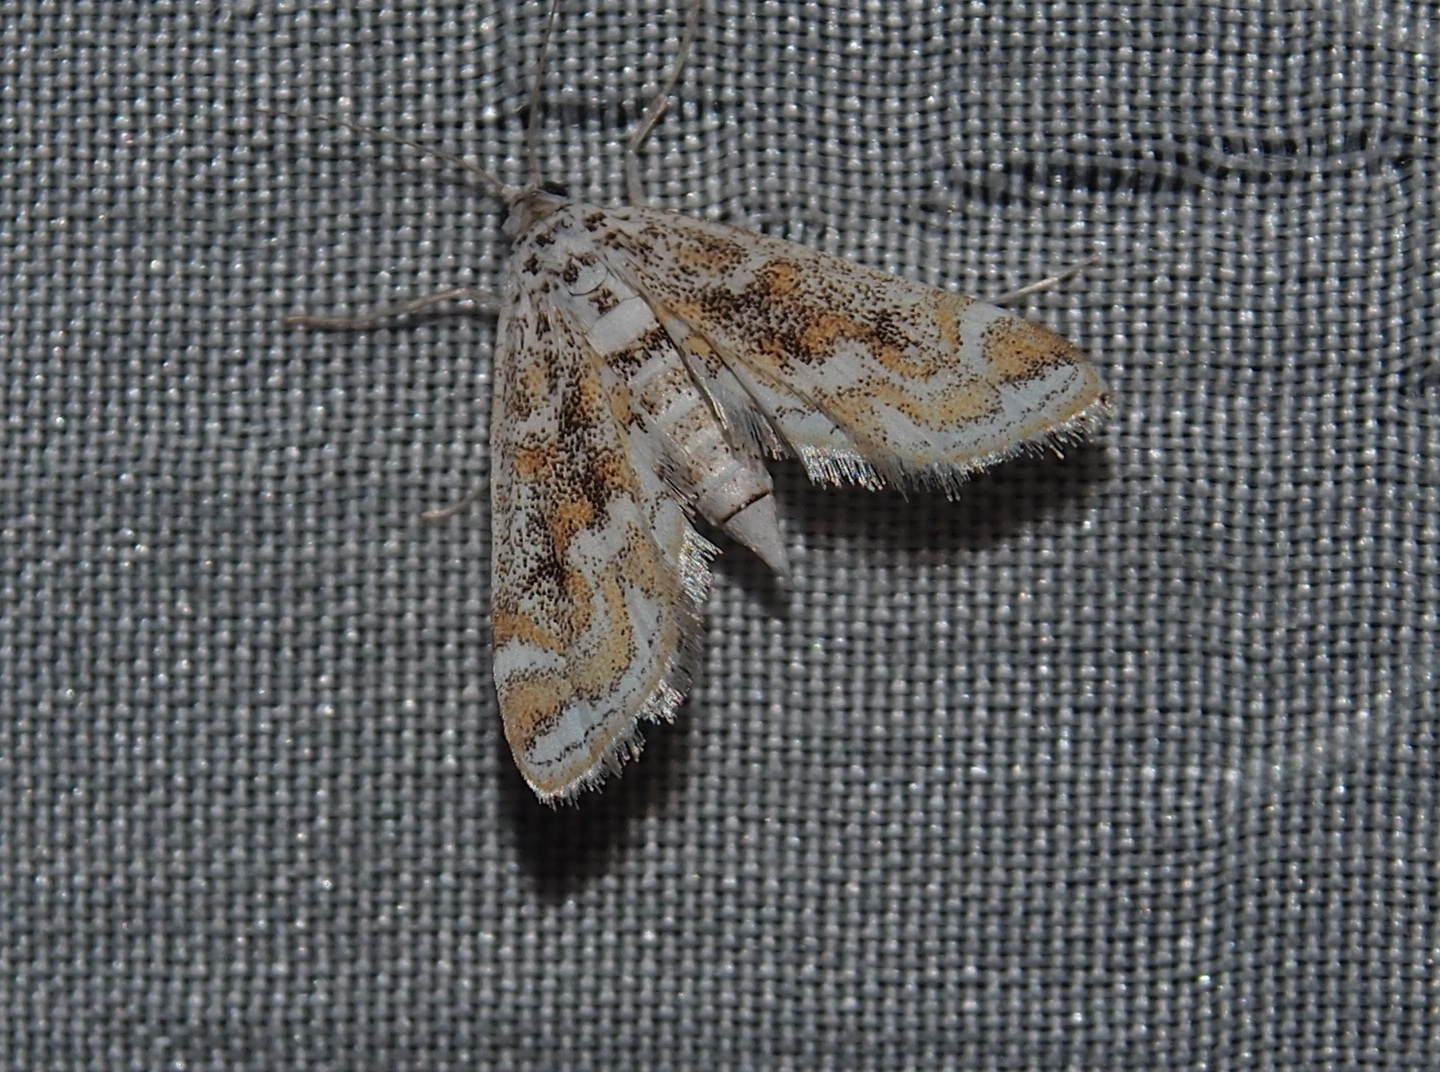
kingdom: Animalia
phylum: Arthropoda
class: Insecta
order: Lepidoptera
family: Crambidae
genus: Parapoynx
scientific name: Parapoynx diminutalis
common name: Hydrilla leafcutter
